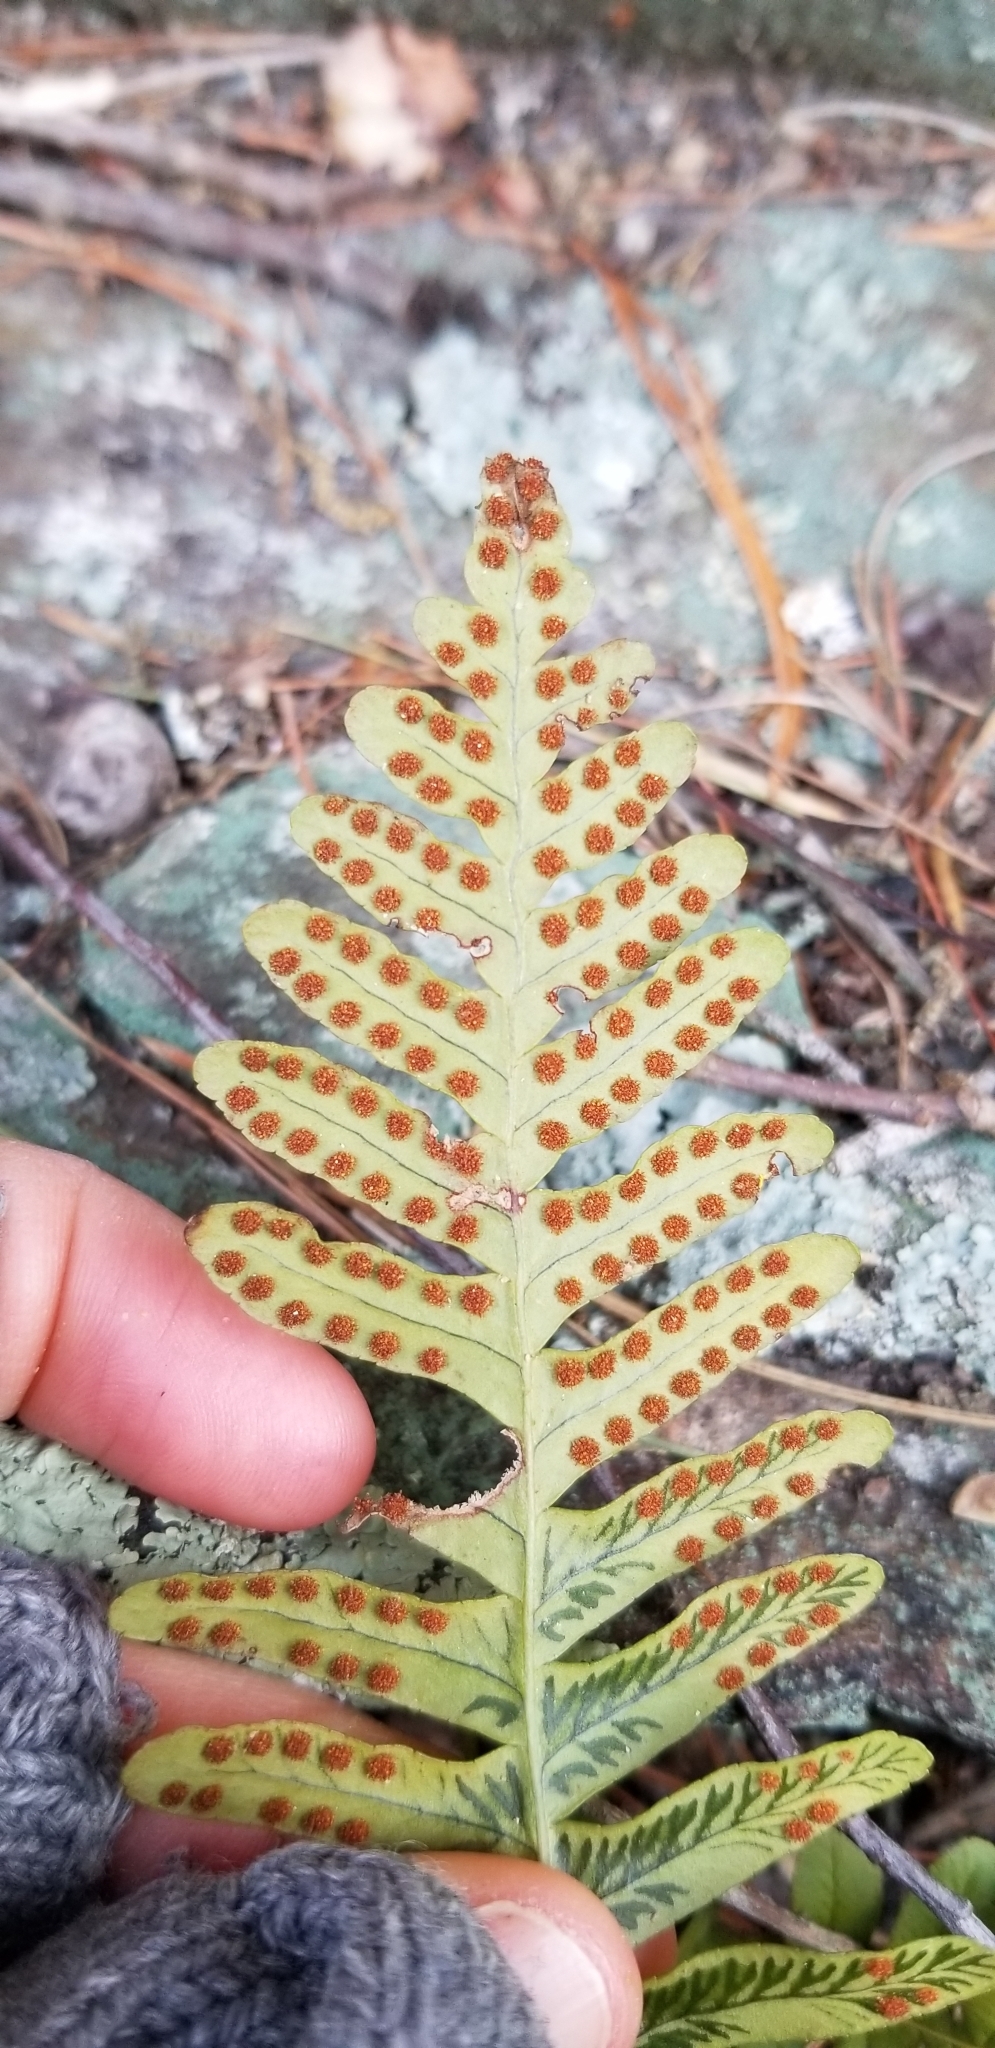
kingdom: Plantae
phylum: Tracheophyta
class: Polypodiopsida
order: Polypodiales
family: Polypodiaceae
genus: Polypodium
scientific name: Polypodium virginianum
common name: American wall fern
